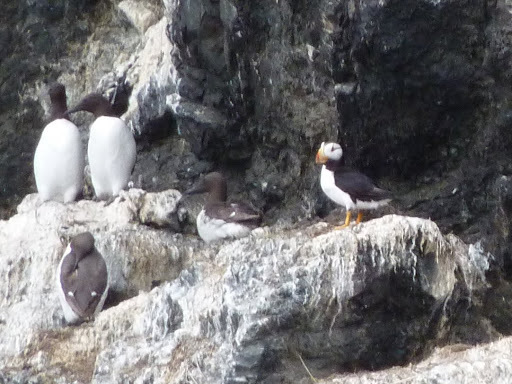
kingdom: Animalia
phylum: Chordata
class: Aves
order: Charadriiformes
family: Alcidae
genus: Fratercula
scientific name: Fratercula corniculata
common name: Horned puffin
